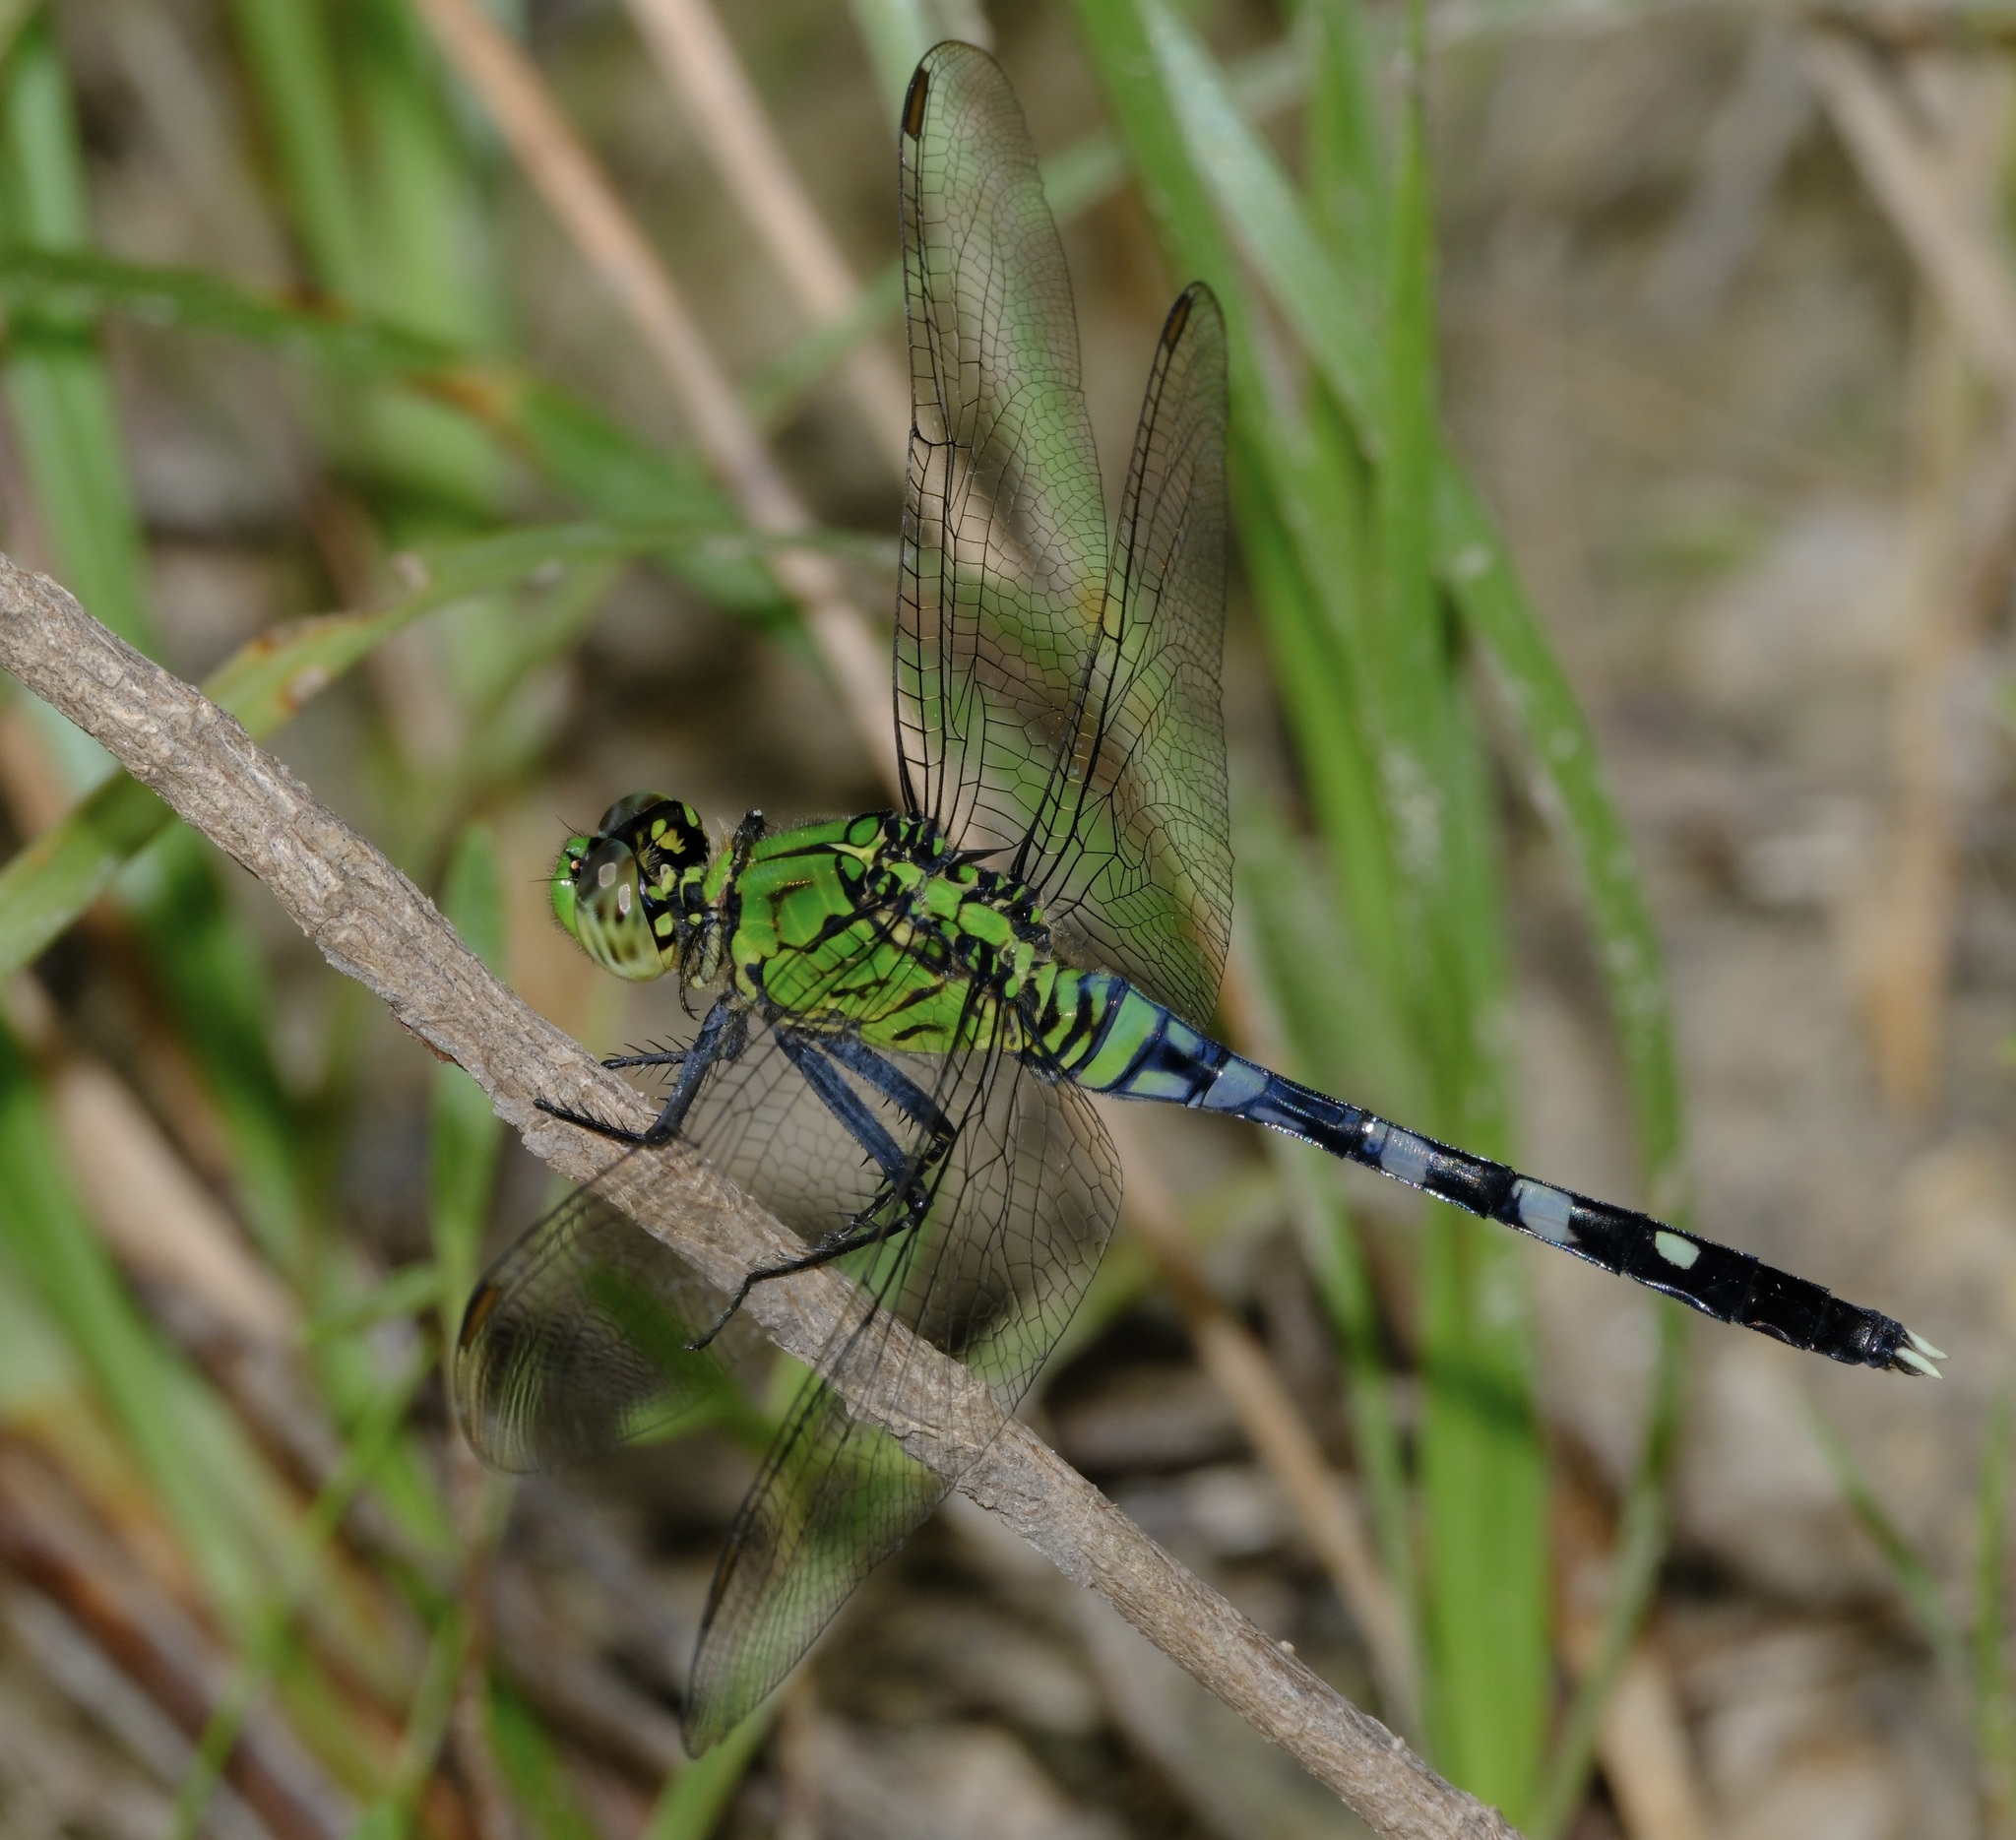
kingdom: Animalia
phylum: Arthropoda
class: Insecta
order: Odonata
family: Libellulidae
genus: Erythemis
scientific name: Erythemis simplicicollis
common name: Eastern pondhawk
